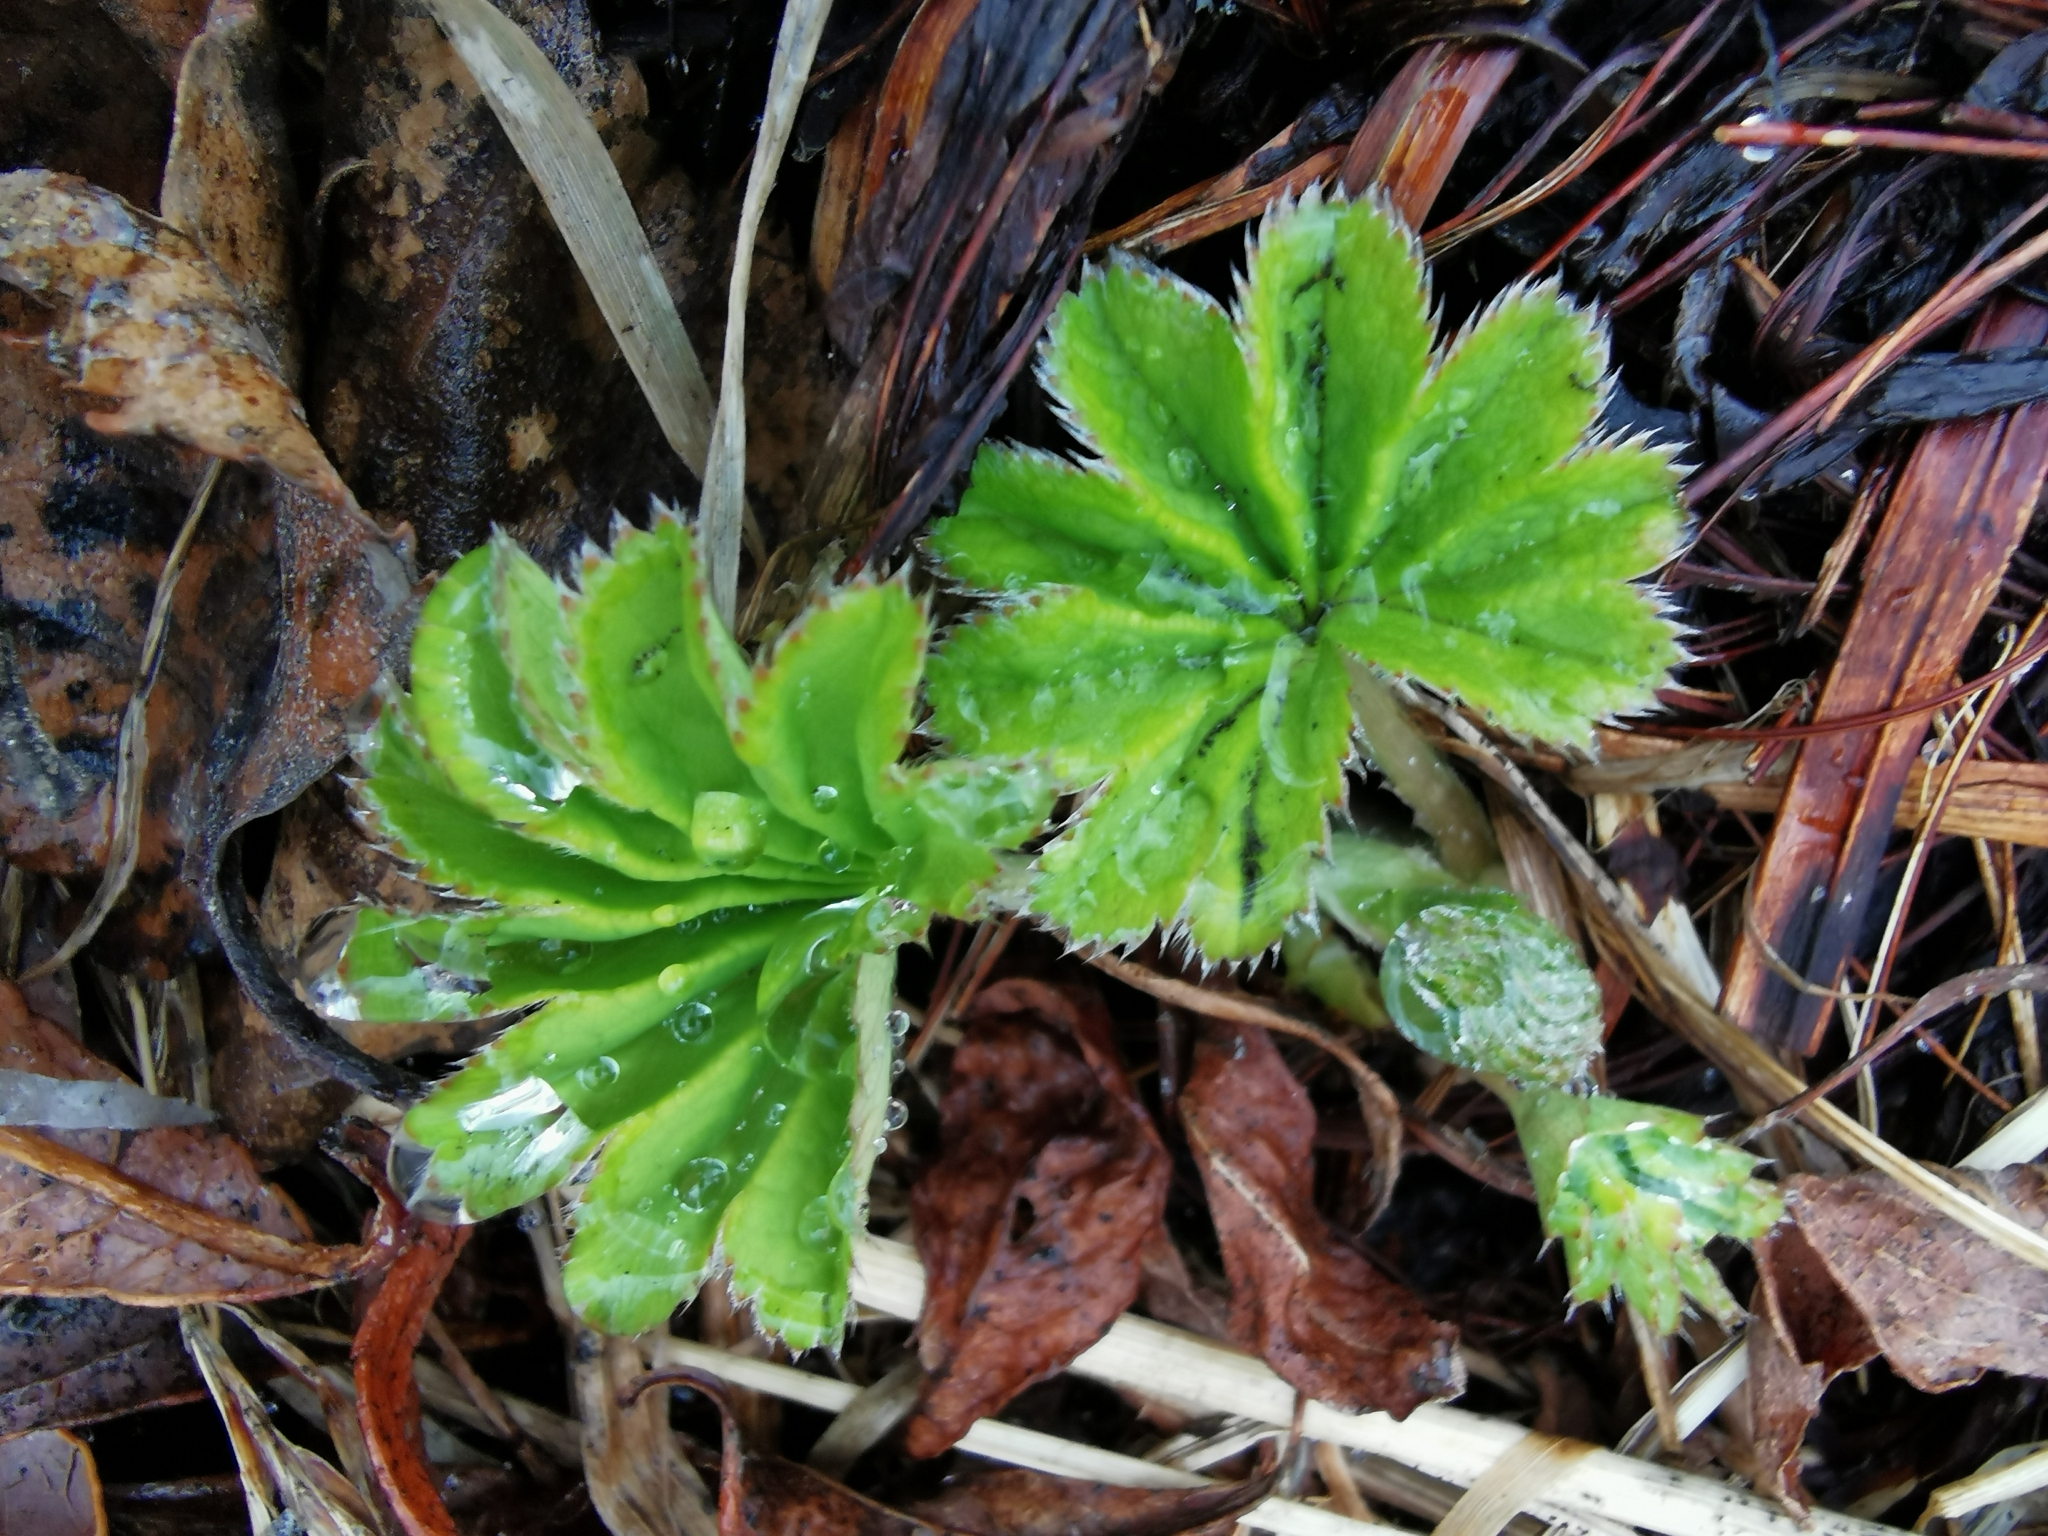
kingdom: Plantae
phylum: Tracheophyta
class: Magnoliopsida
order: Rosales
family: Rosaceae
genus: Alchemilla
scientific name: Alchemilla subcrenata
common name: Broadtooth lady's mantle
